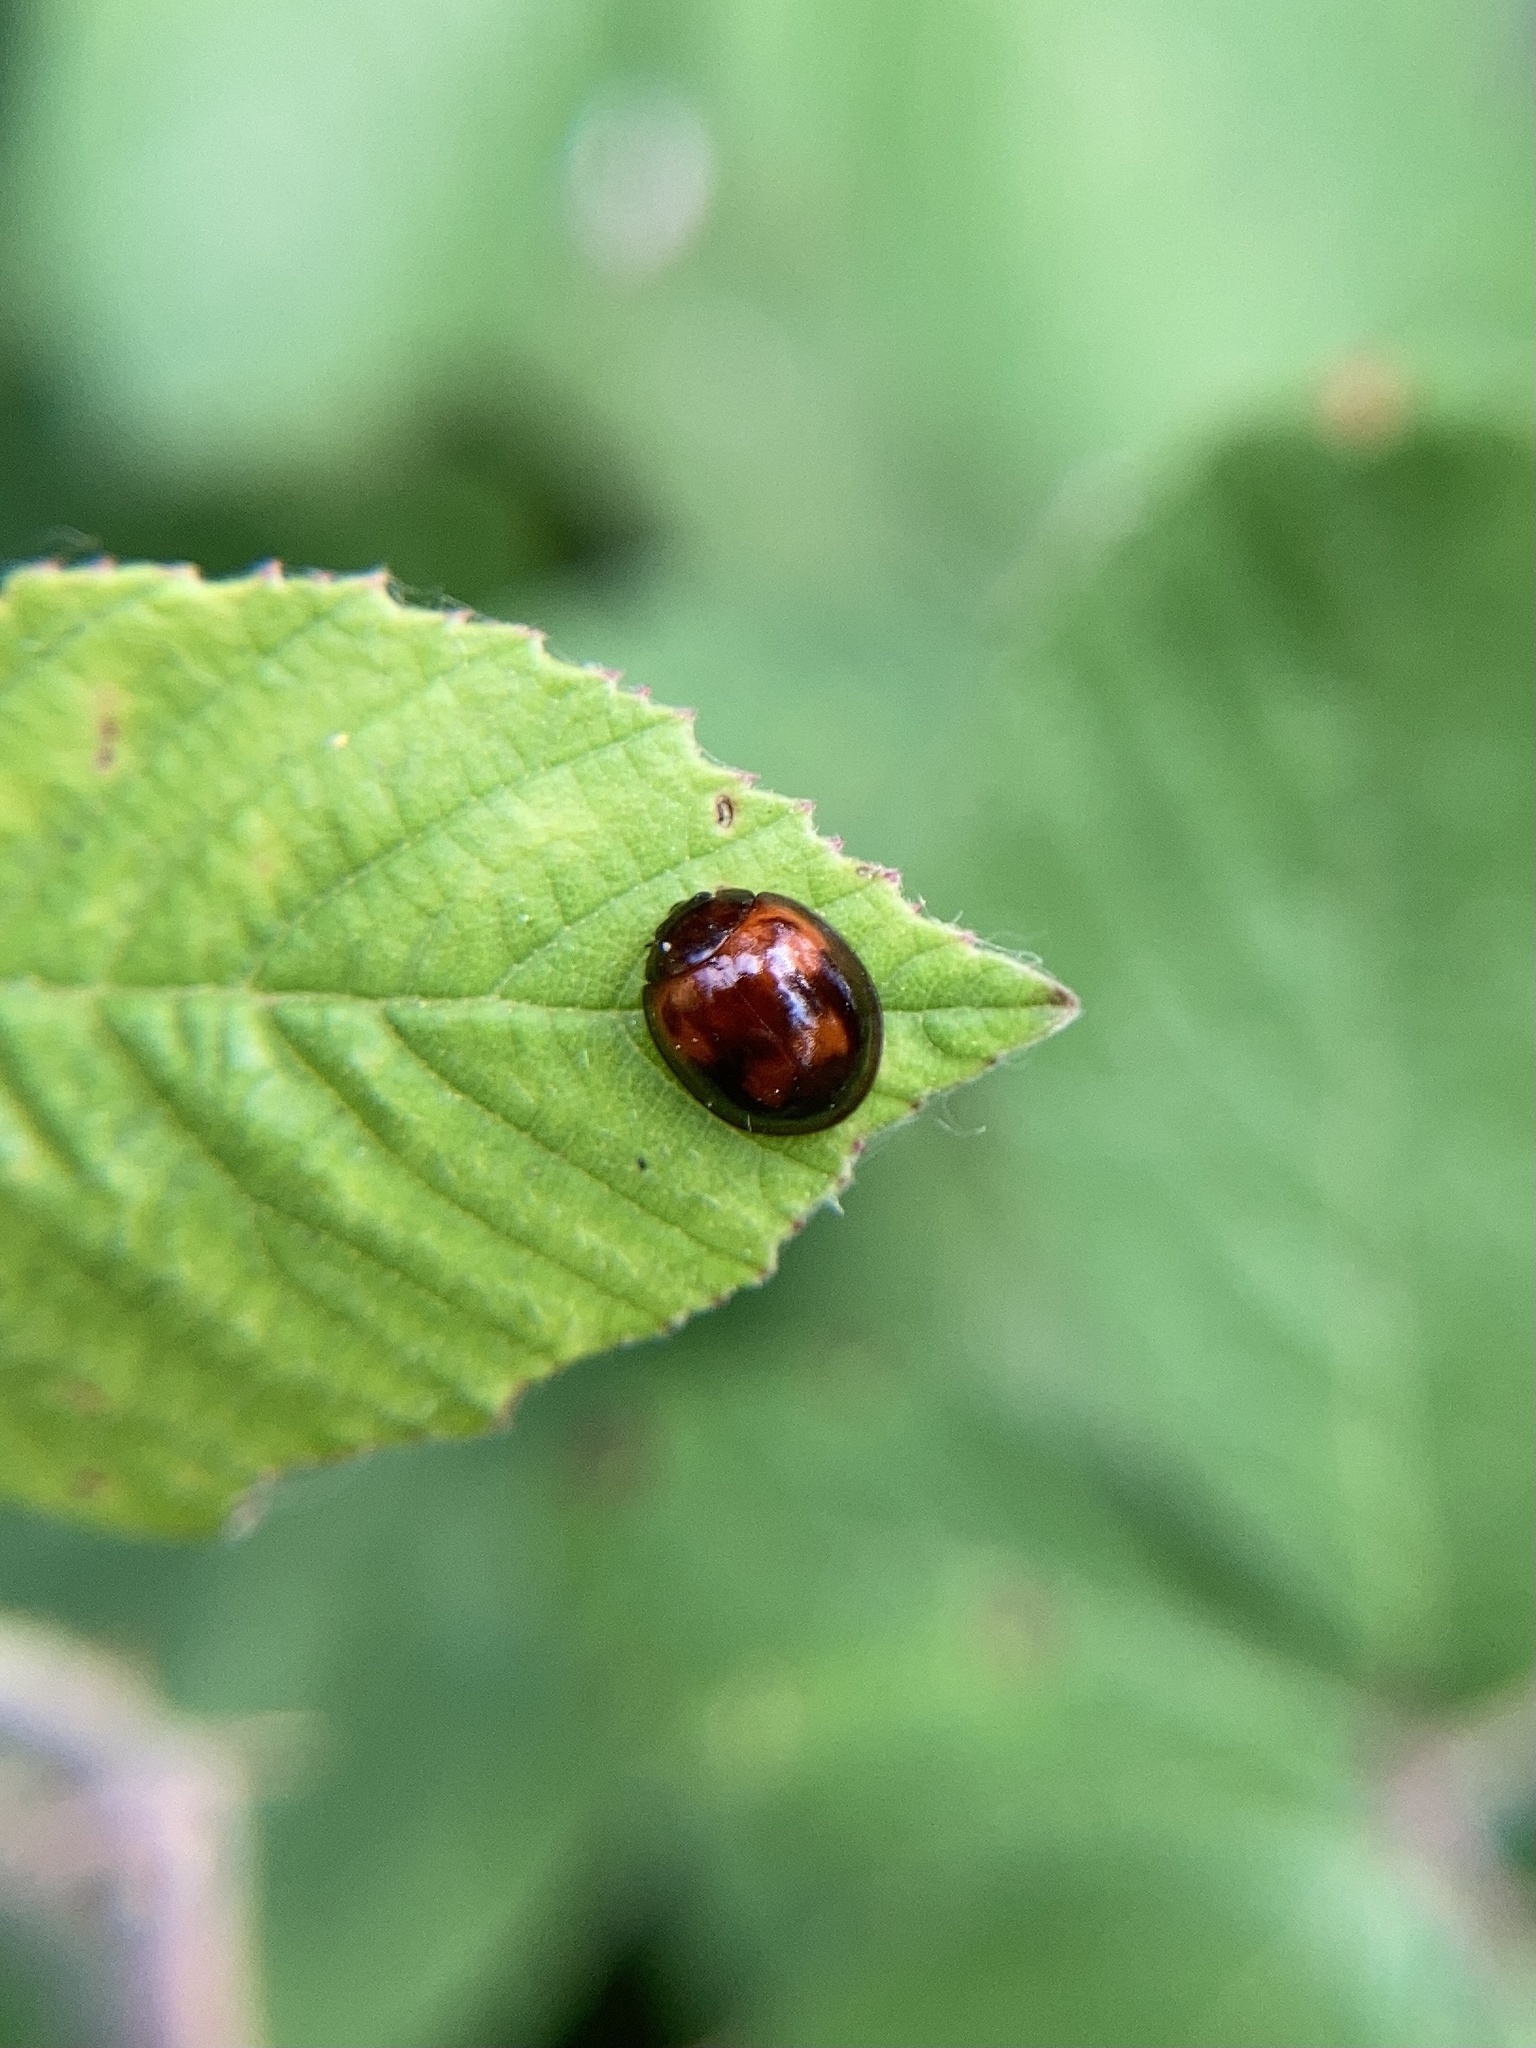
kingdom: Animalia
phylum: Arthropoda
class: Insecta
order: Coleoptera
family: Coccinellidae
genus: Brumus
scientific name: Brumus quadripustulatus
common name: Ladybird beetle
